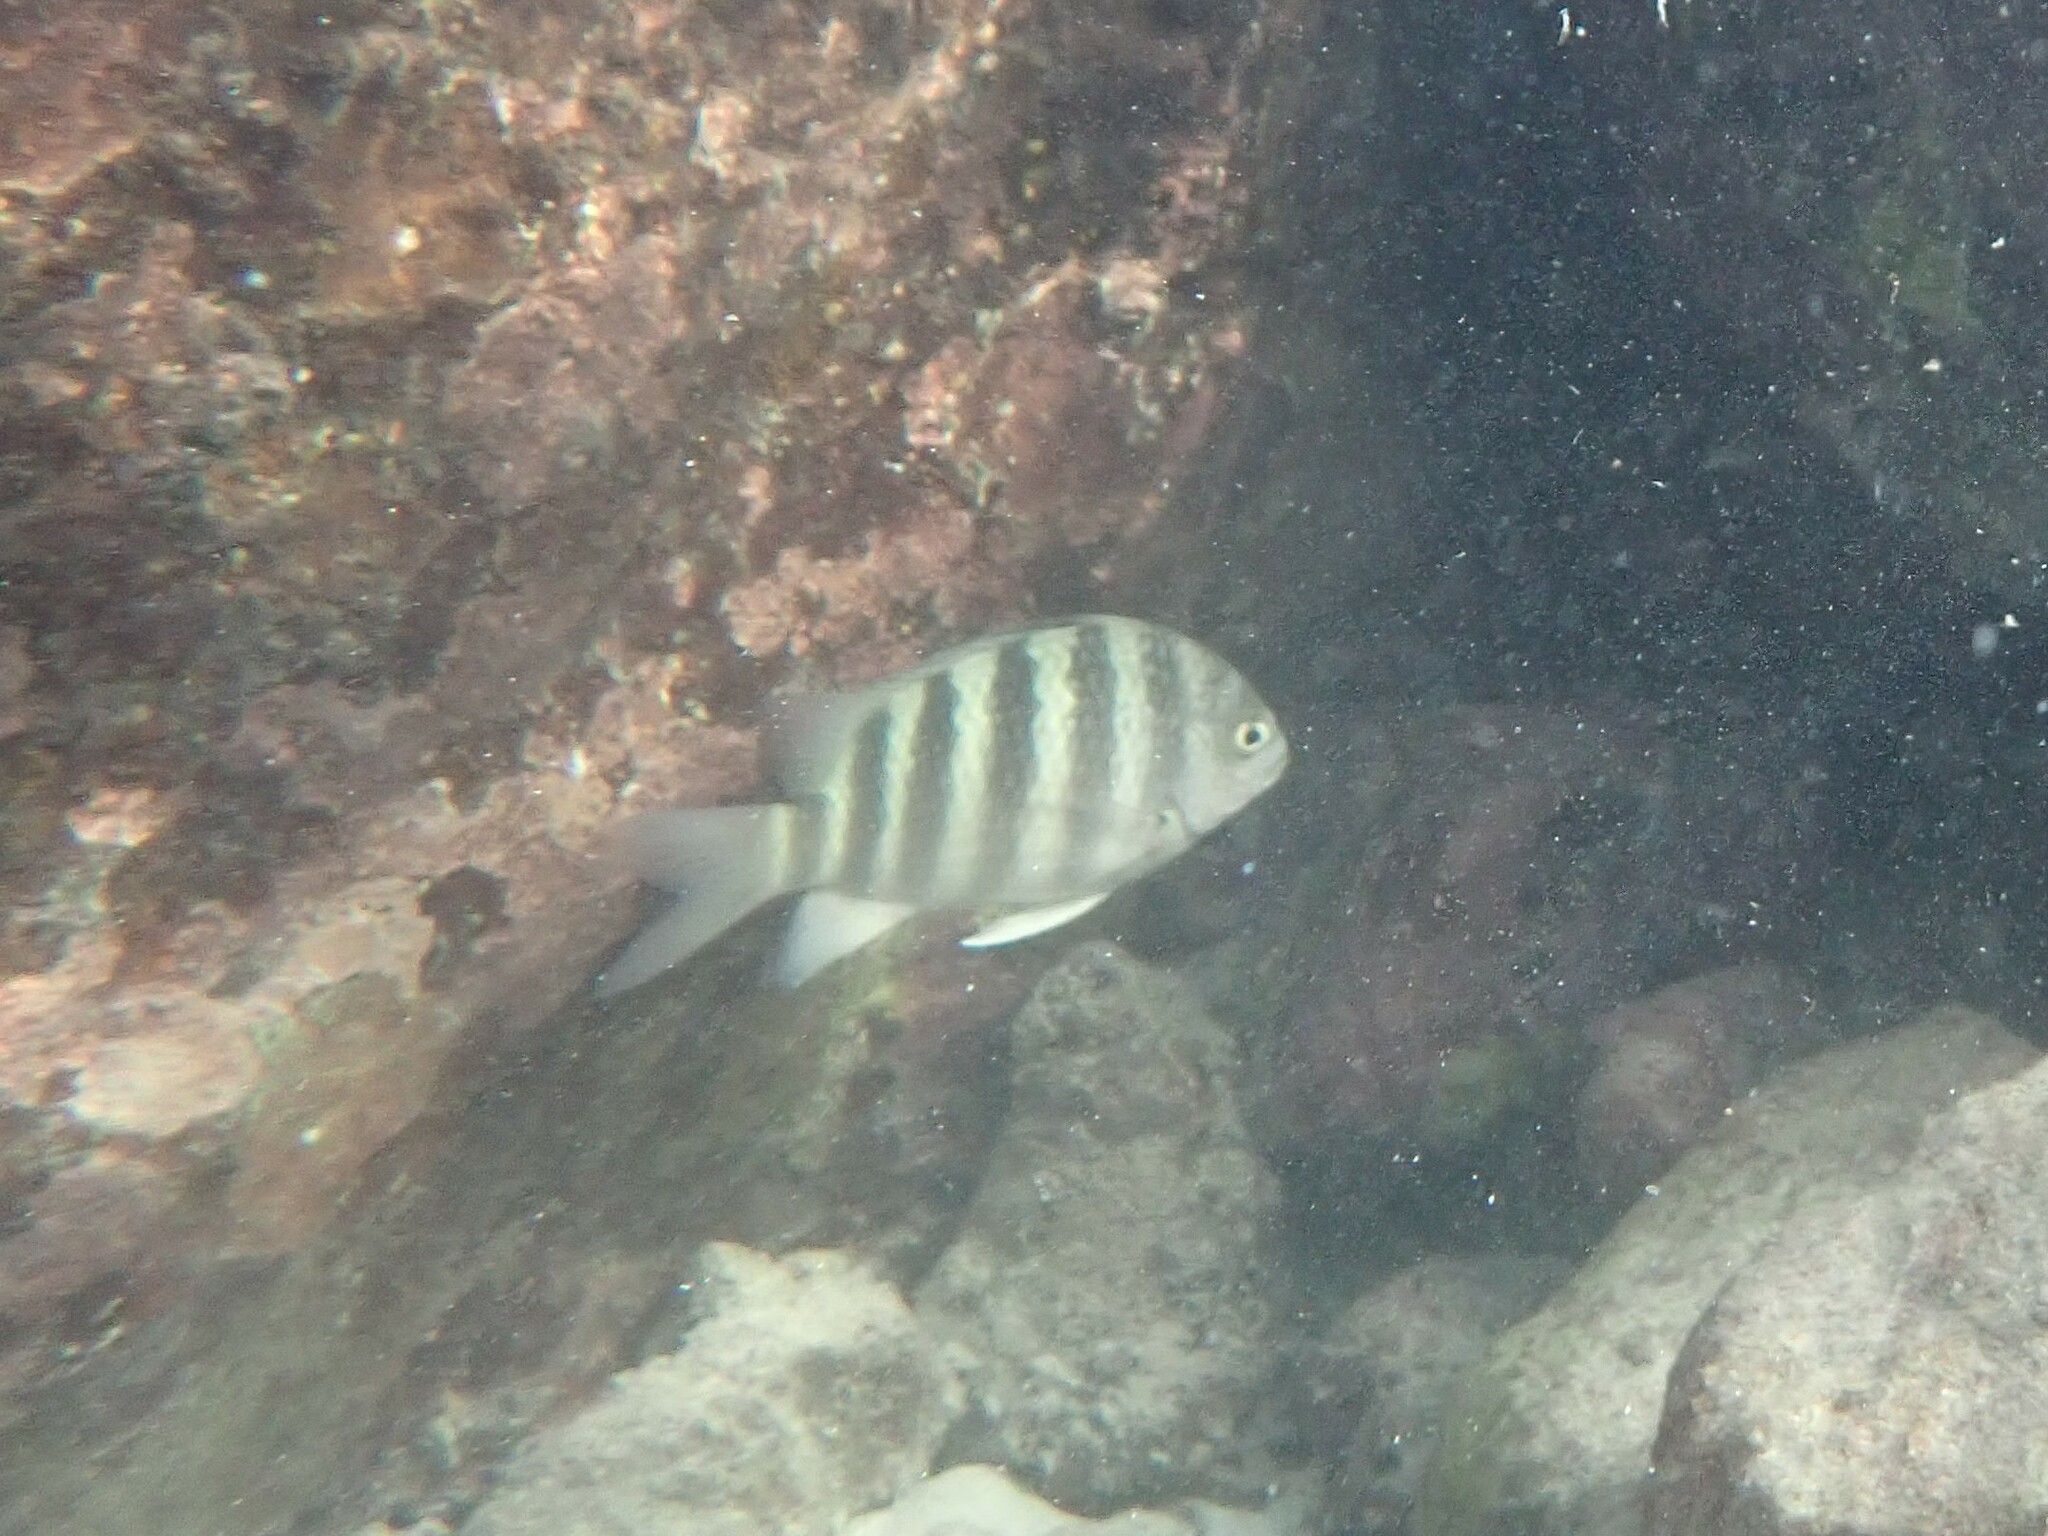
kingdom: Animalia
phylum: Chordata
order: Perciformes
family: Pomacentridae
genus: Abudefduf
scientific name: Abudefduf septemfasciatus
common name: Banded sergeant
